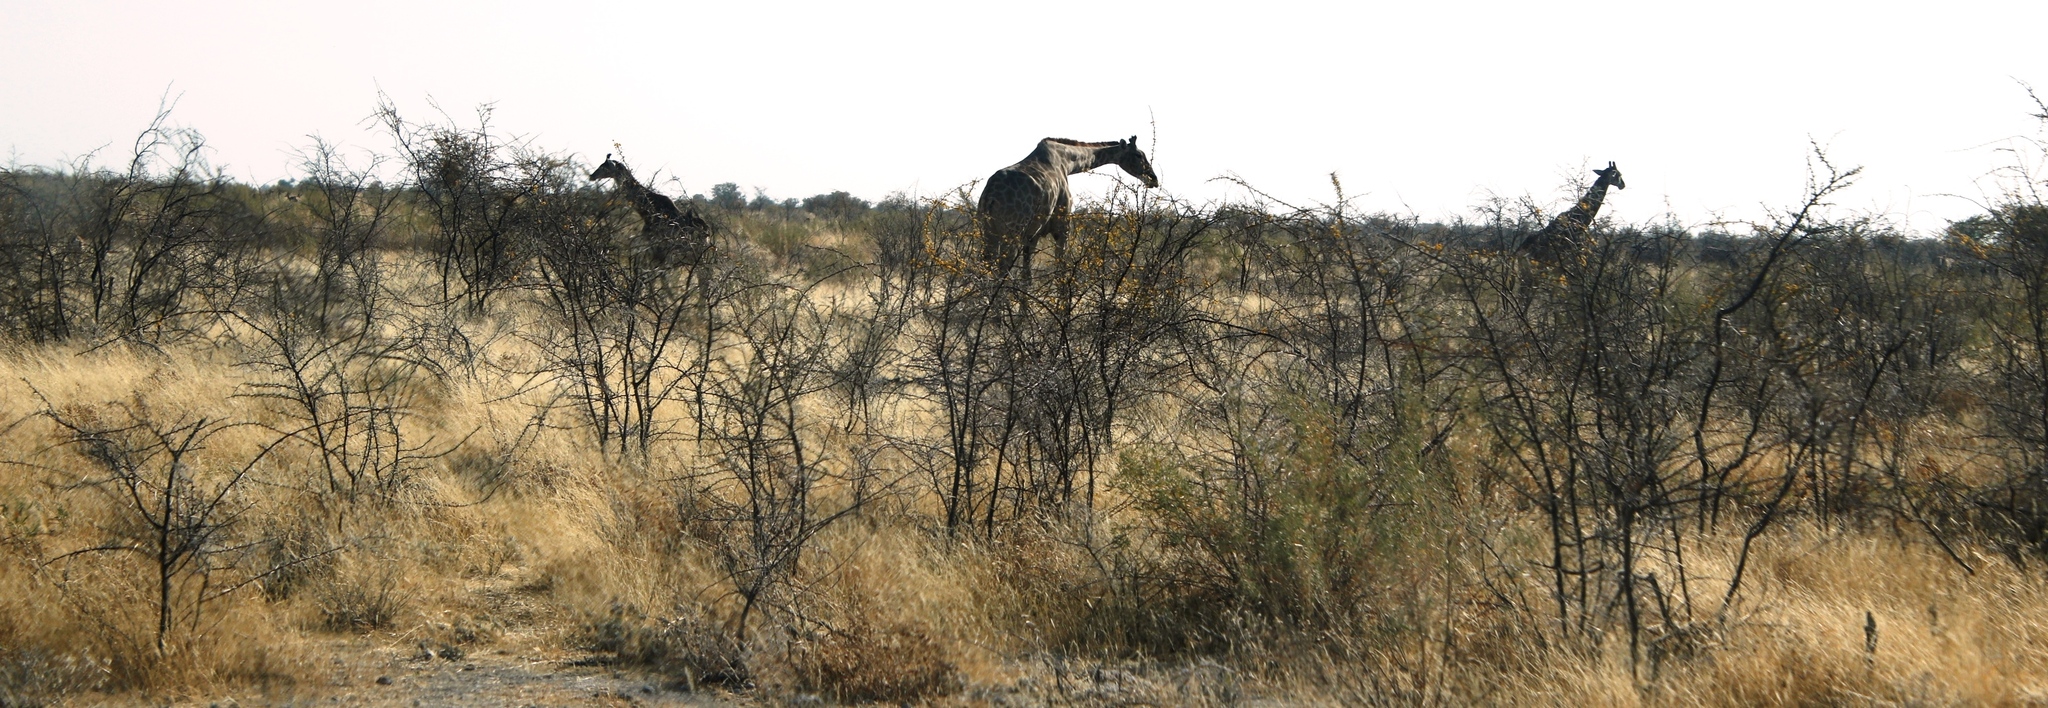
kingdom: Animalia
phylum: Chordata
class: Mammalia
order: Artiodactyla
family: Giraffidae
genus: Giraffa
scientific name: Giraffa giraffa
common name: Southern giraffe
